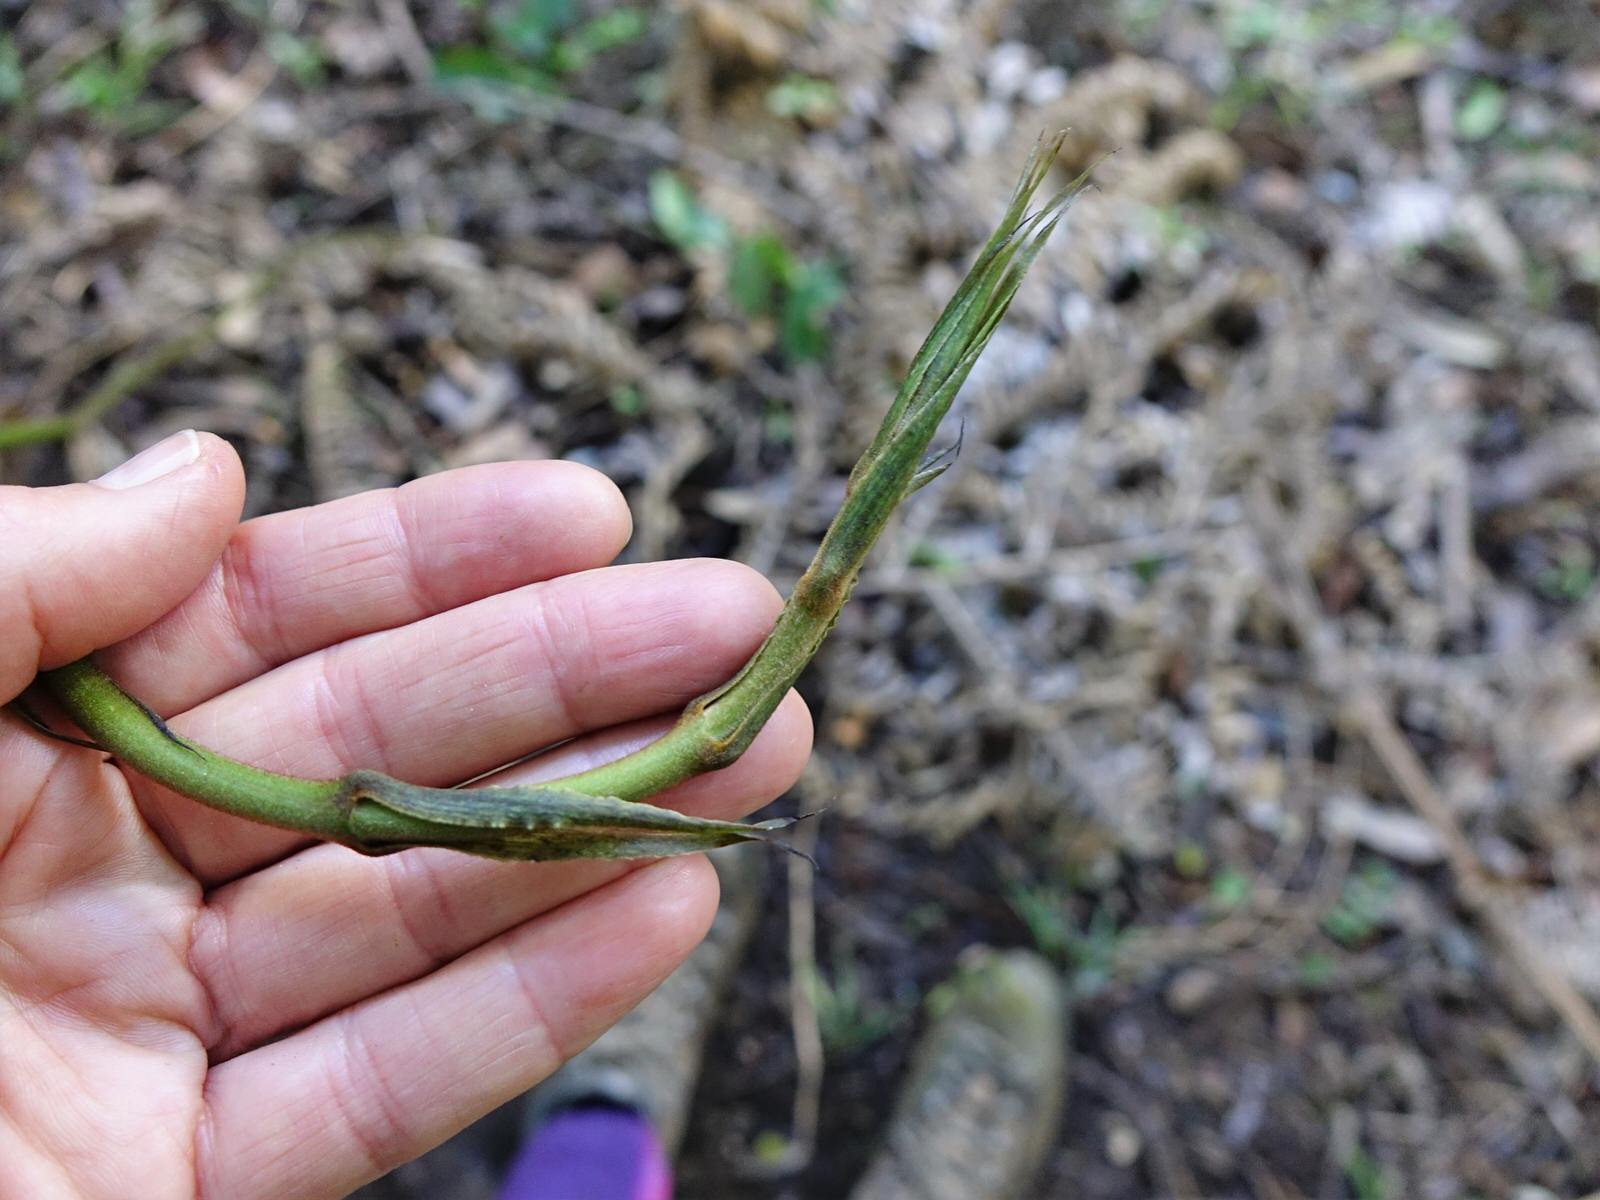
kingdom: Plantae
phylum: Tracheophyta
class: Liliopsida
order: Liliales
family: Ripogonaceae
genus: Ripogonum
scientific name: Ripogonum scandens
